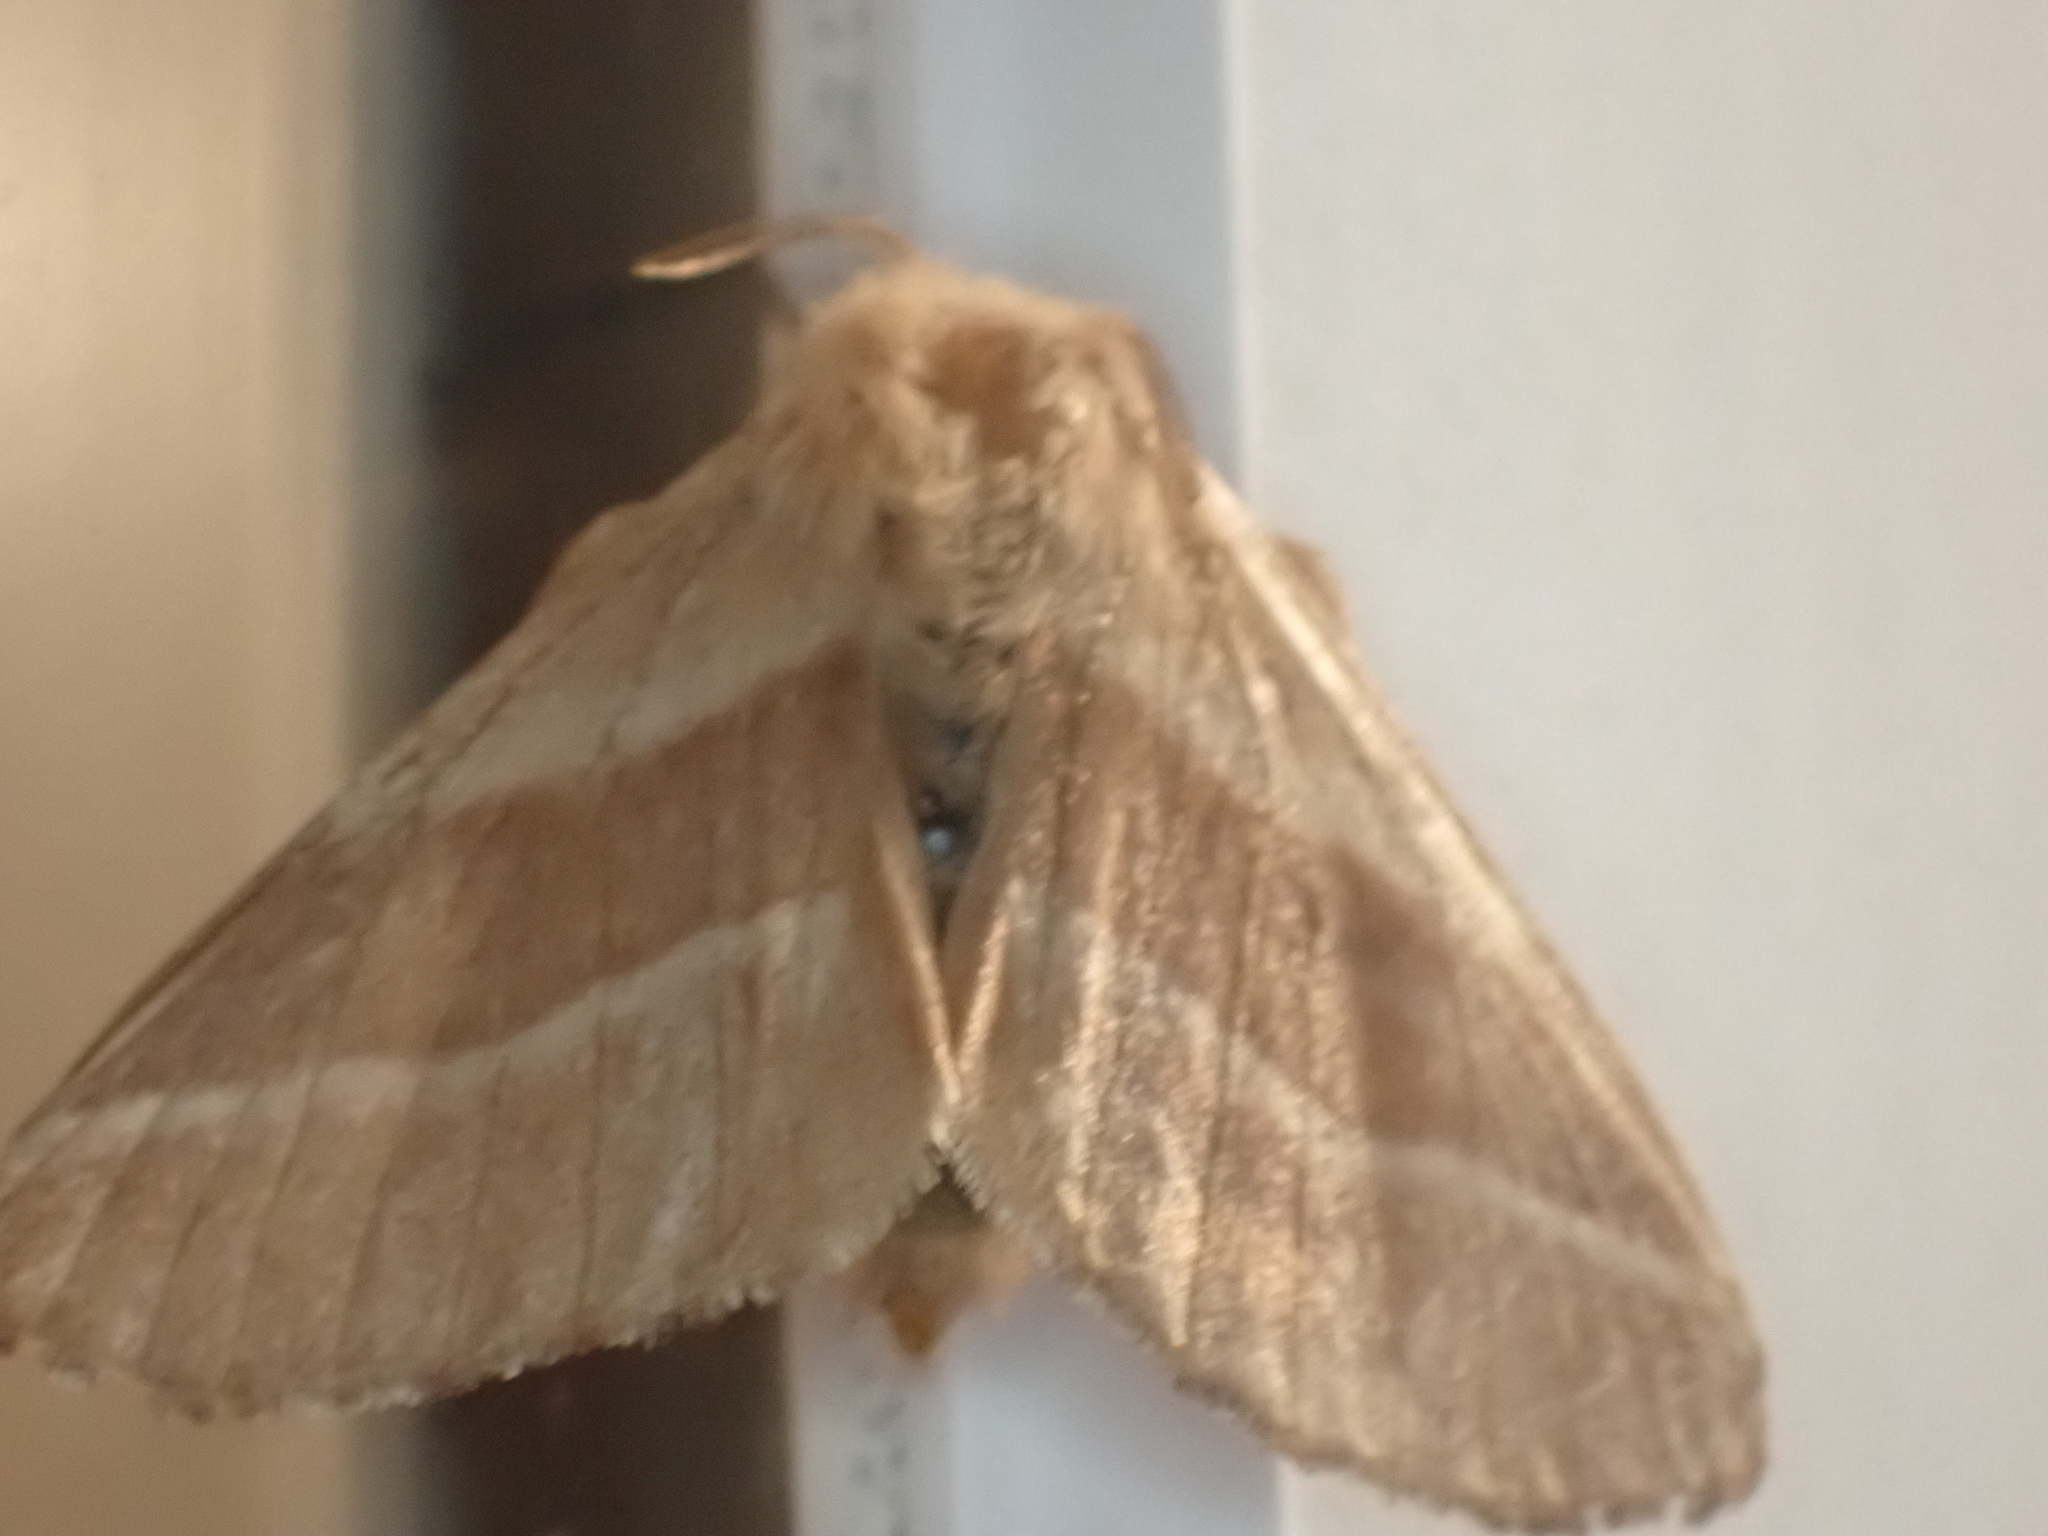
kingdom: Animalia
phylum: Arthropoda
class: Insecta
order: Lepidoptera
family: Lasiocampidae
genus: Malacosoma
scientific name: Malacosoma americana
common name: Eastern tent caterpillar moth
